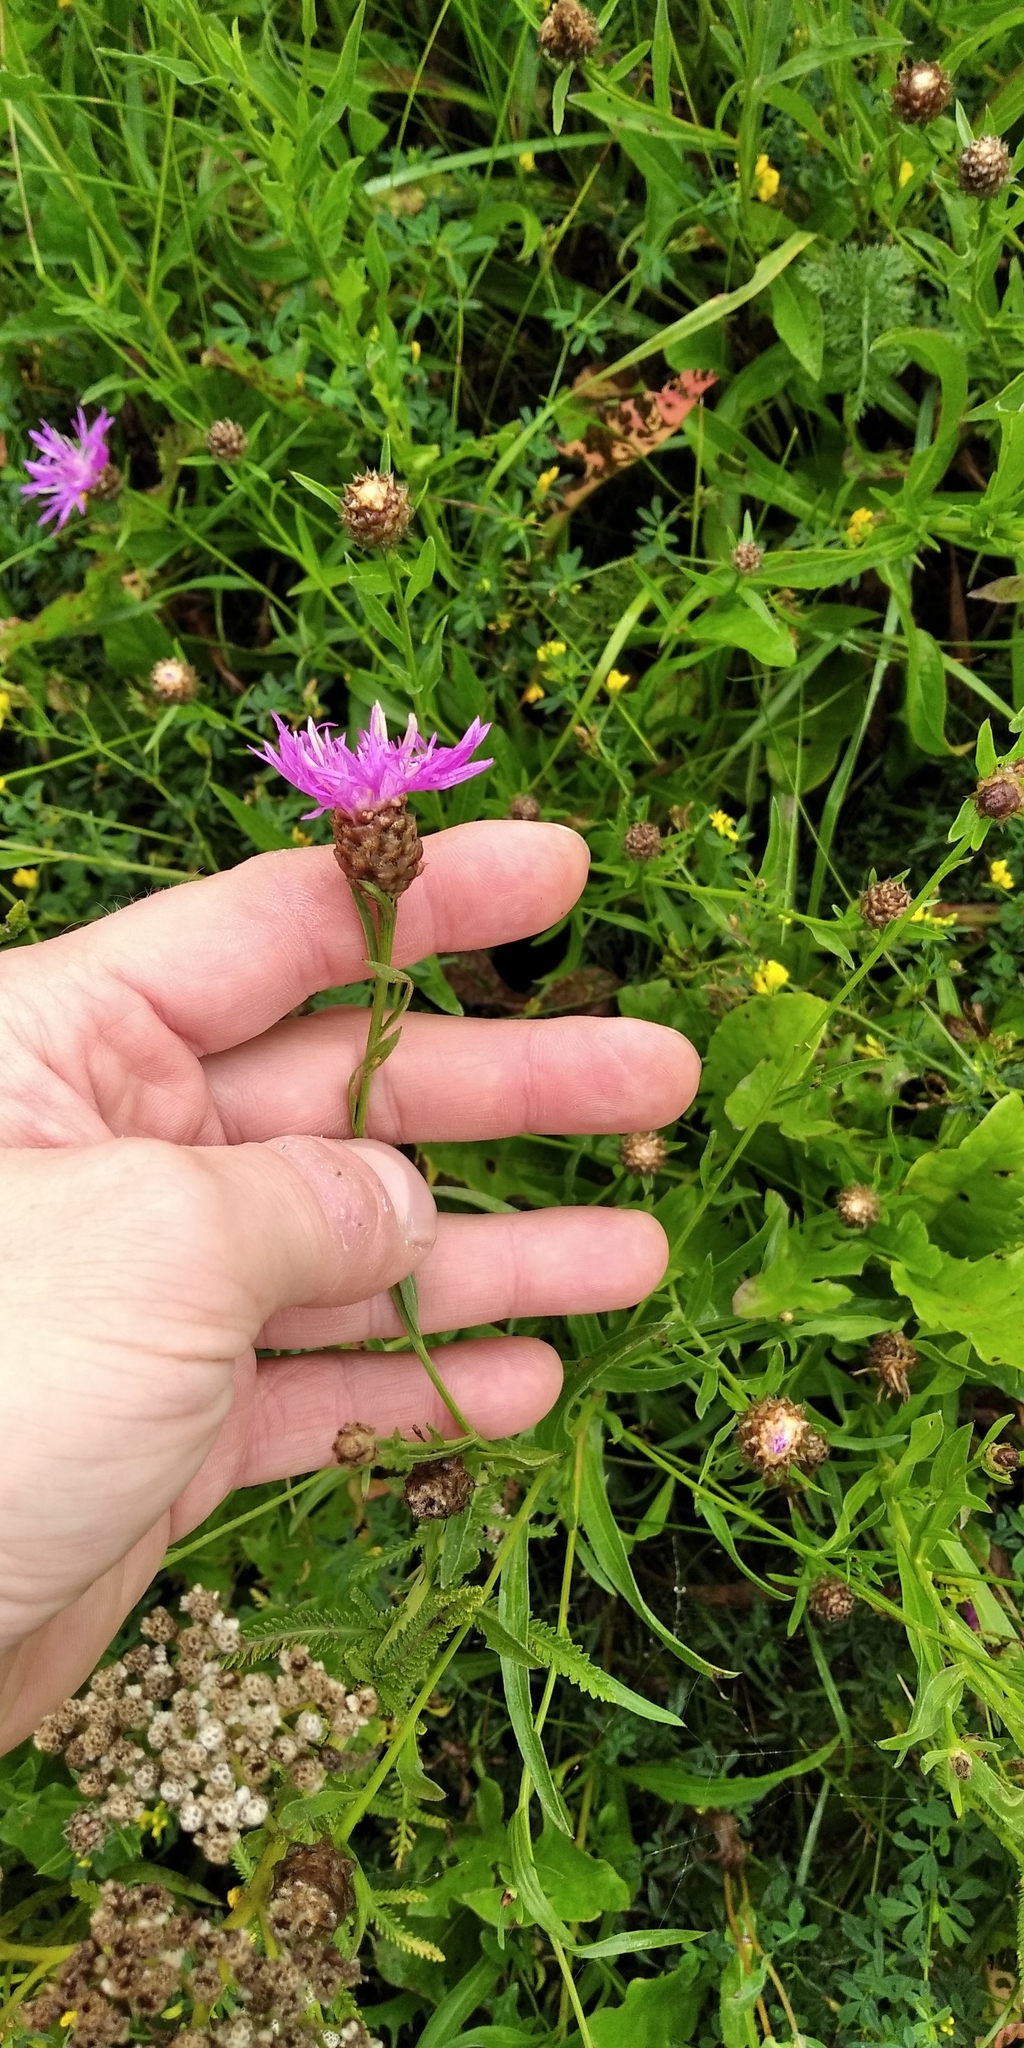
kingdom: Plantae
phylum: Tracheophyta
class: Magnoliopsida
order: Asterales
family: Asteraceae
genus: Centaurea
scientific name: Centaurea jacea
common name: Brown knapweed
